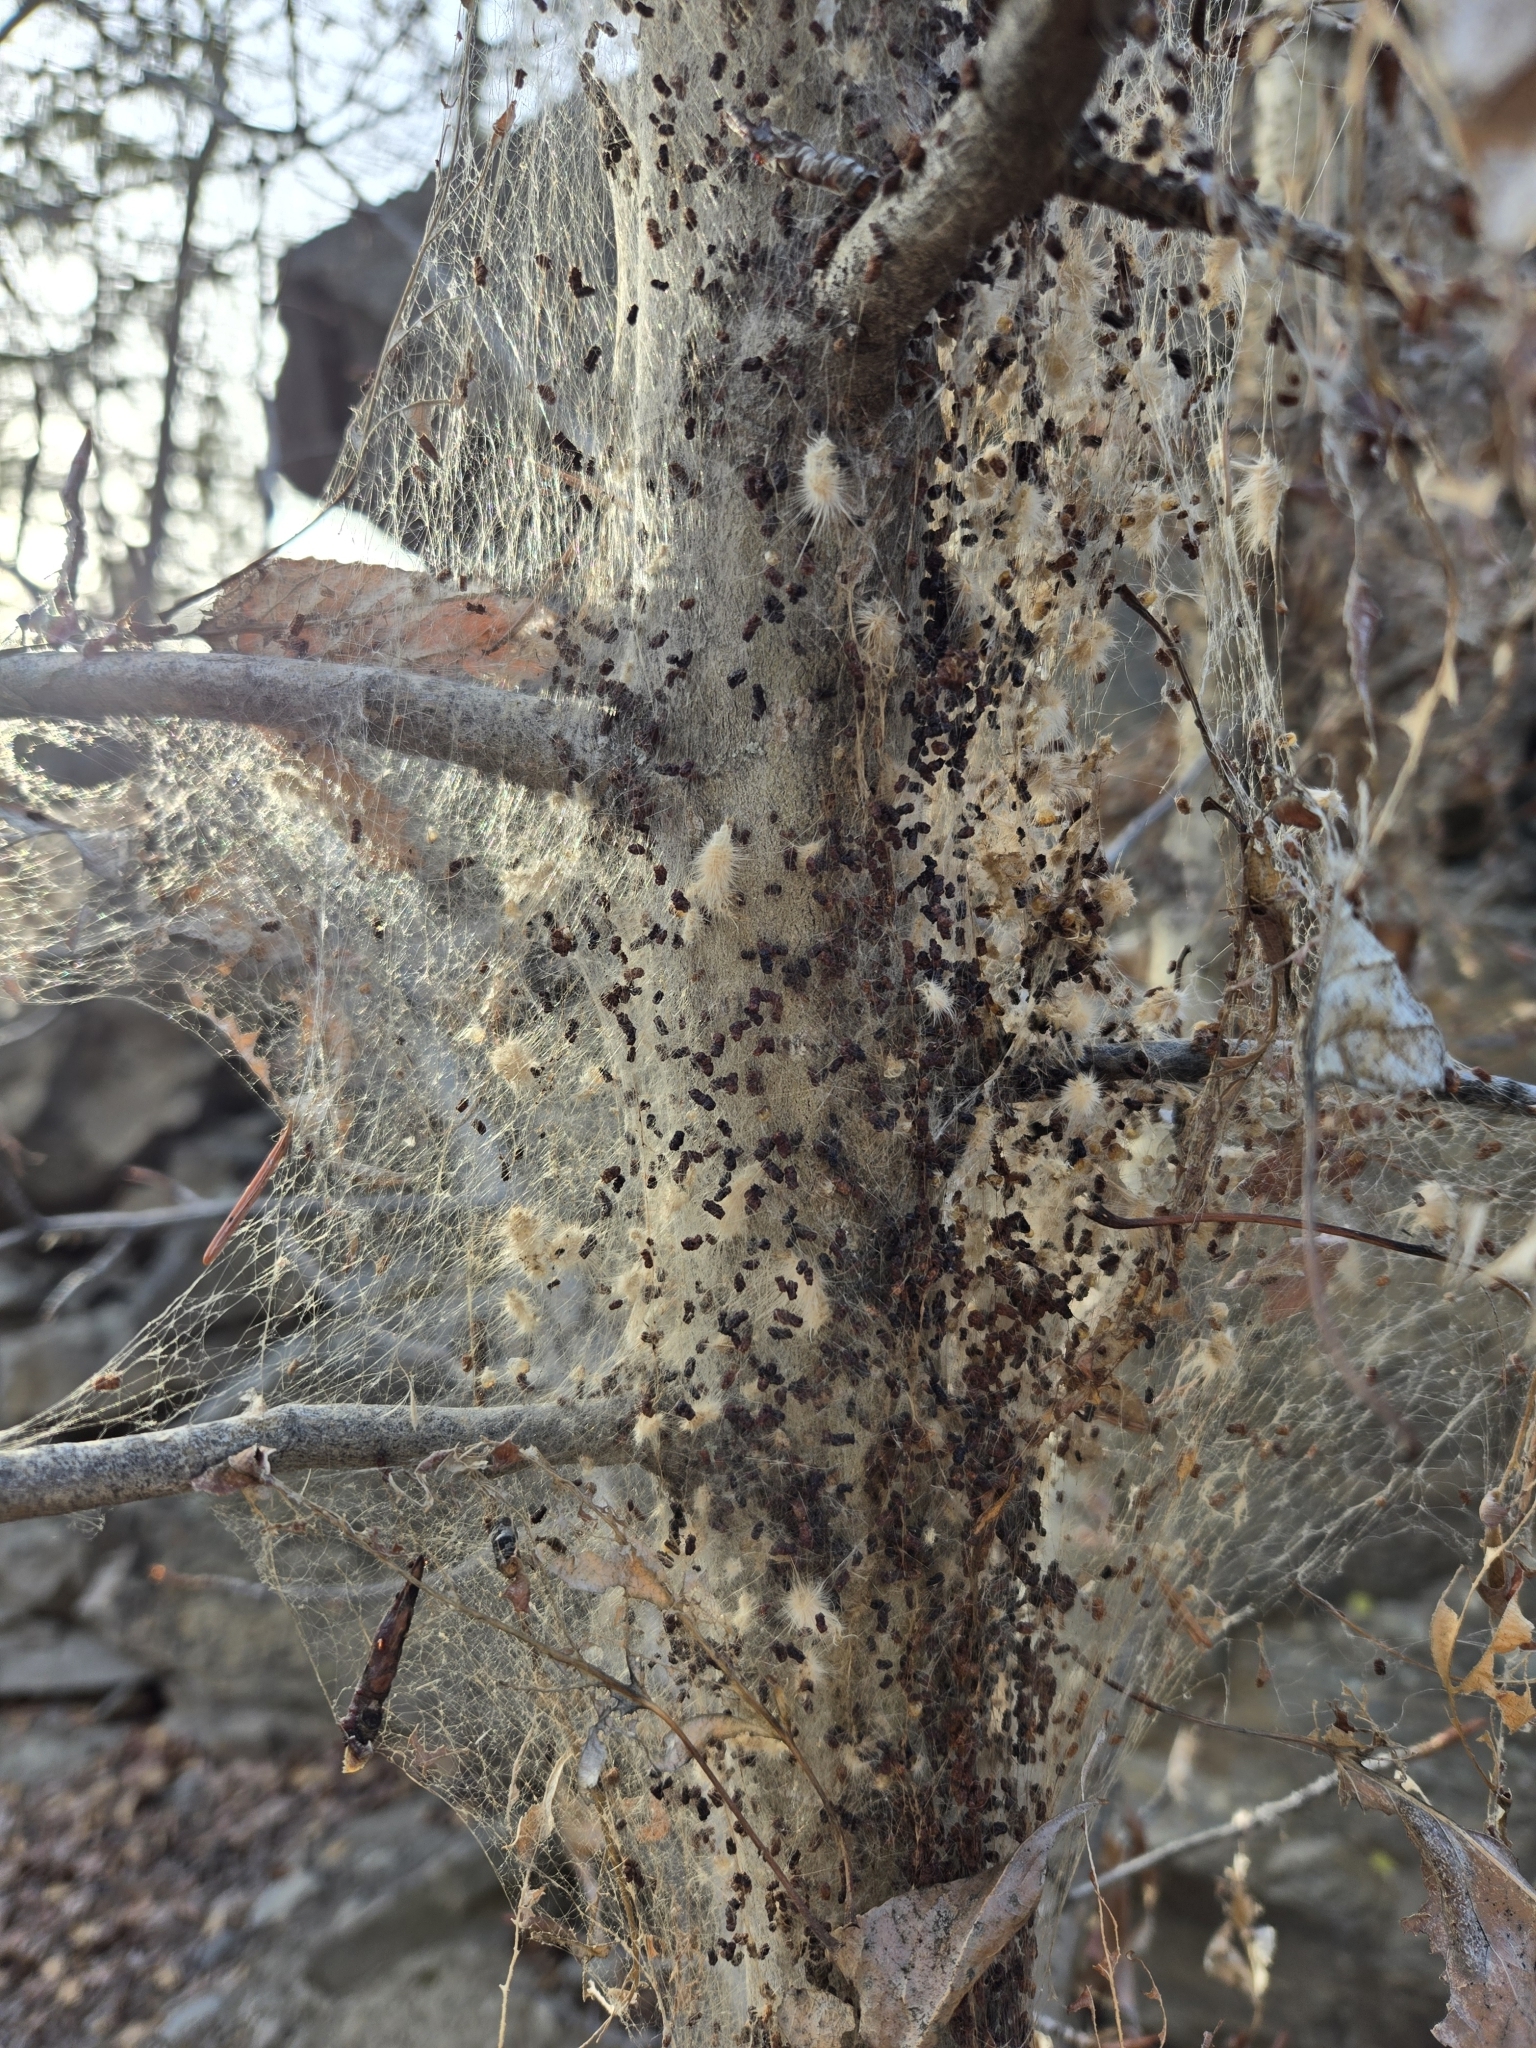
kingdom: Animalia
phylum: Arthropoda
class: Insecta
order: Lepidoptera
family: Erebidae
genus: Hyphantria
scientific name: Hyphantria cunea
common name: American white moth
